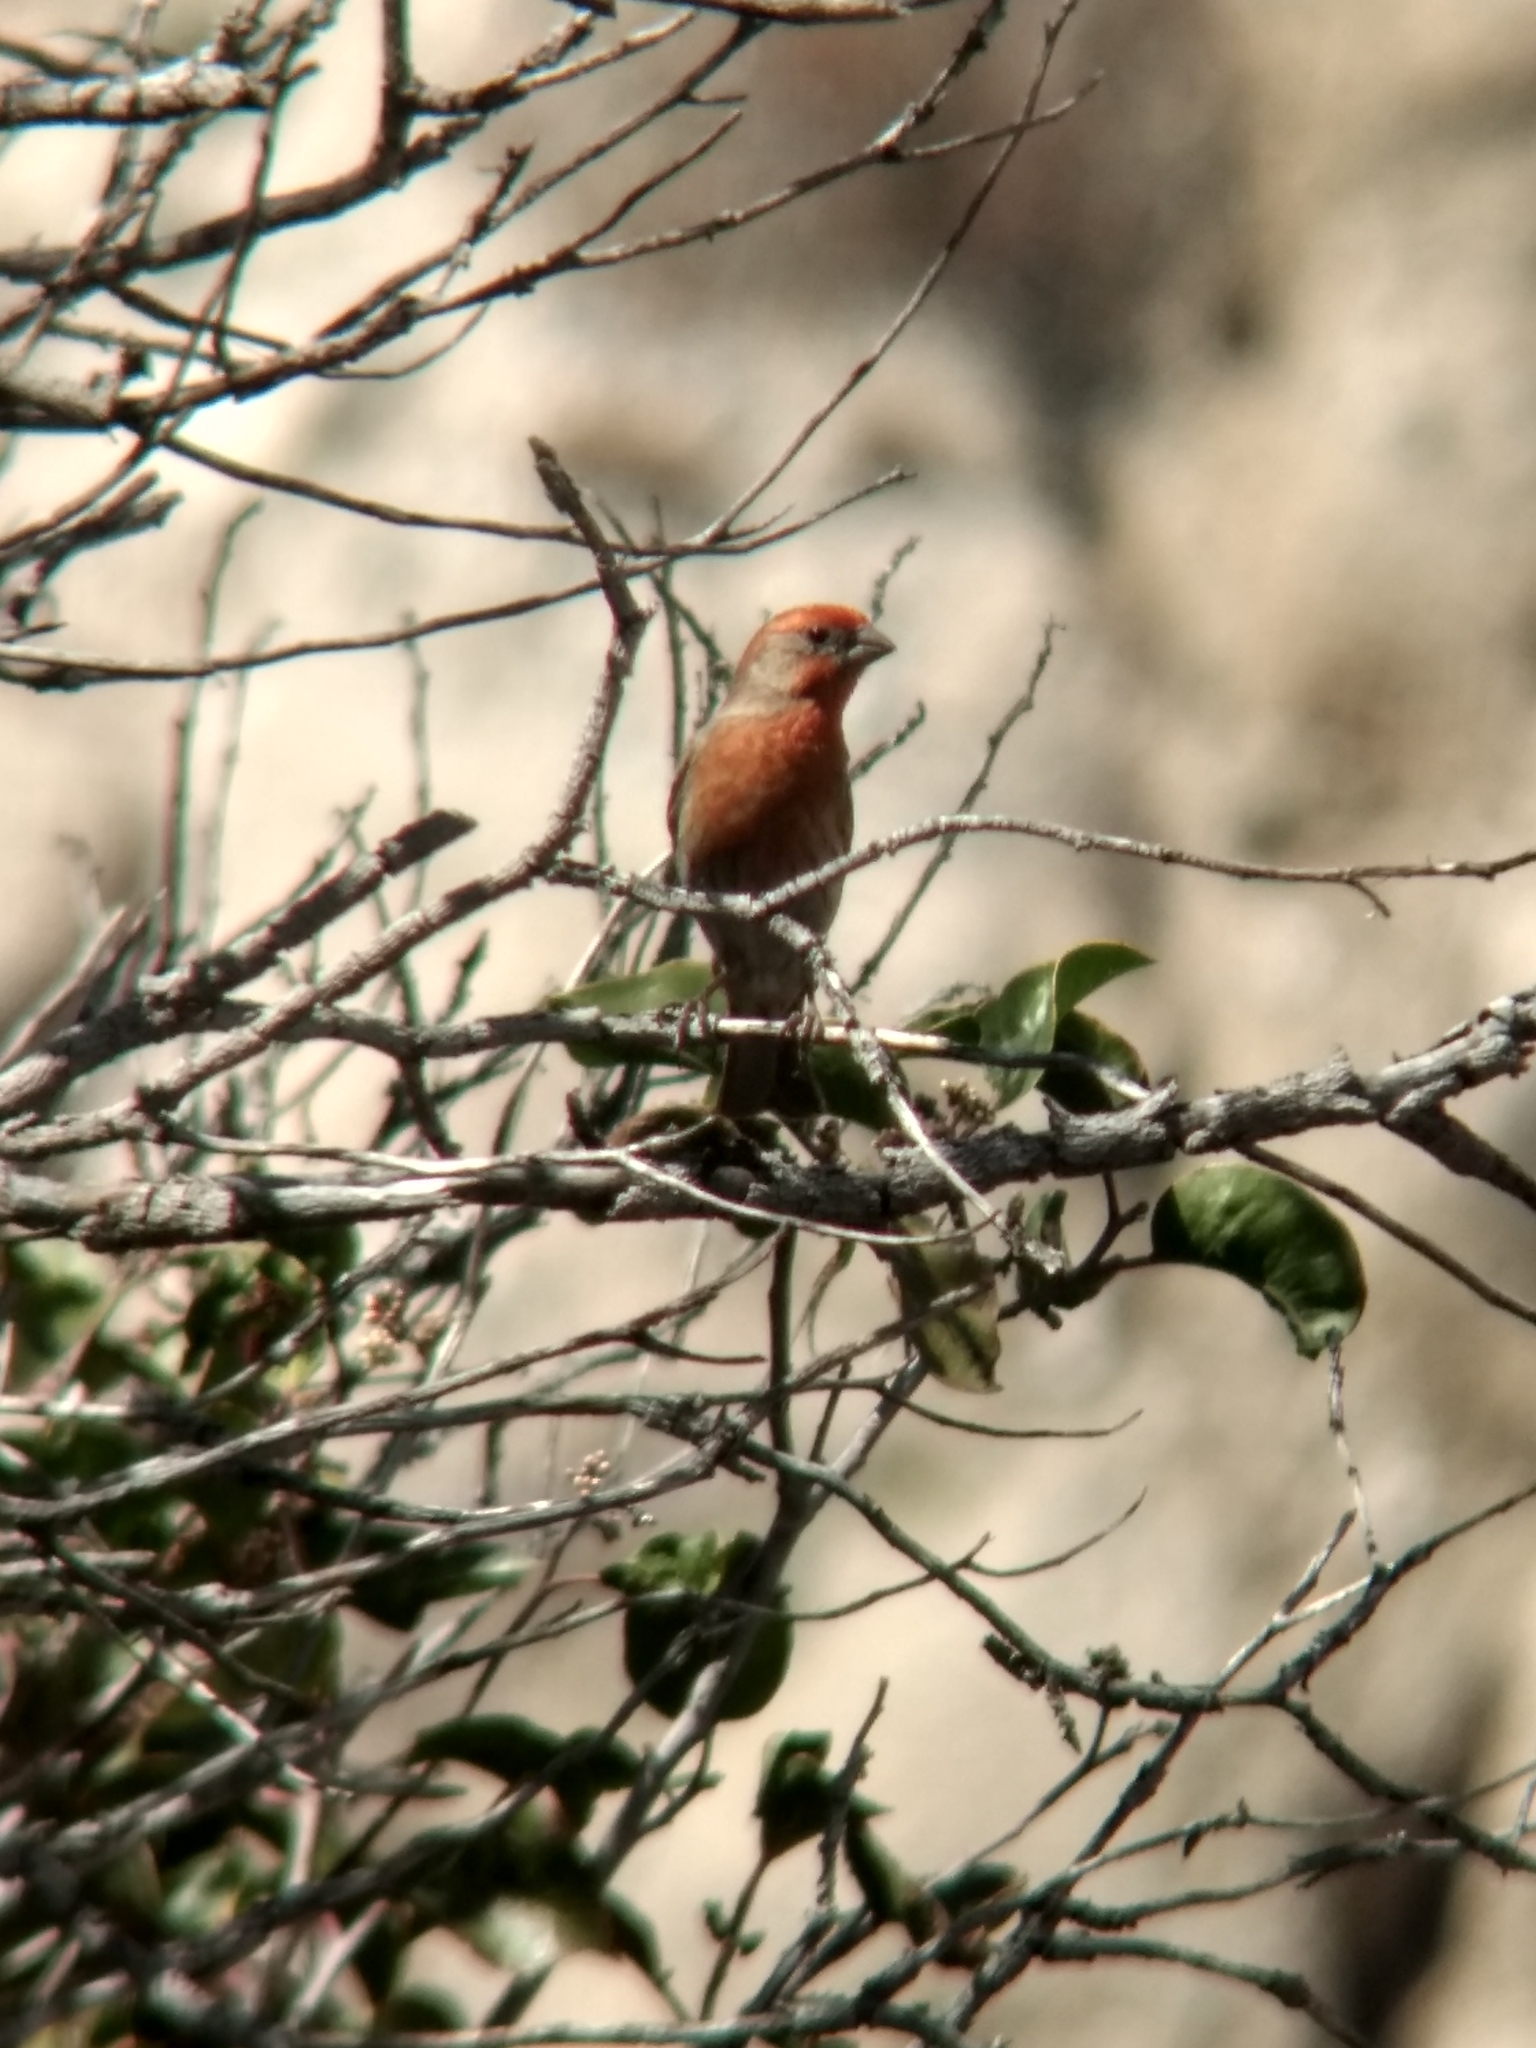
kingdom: Animalia
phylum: Chordata
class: Aves
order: Passeriformes
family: Fringillidae
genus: Haemorhous
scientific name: Haemorhous mexicanus
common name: House finch
